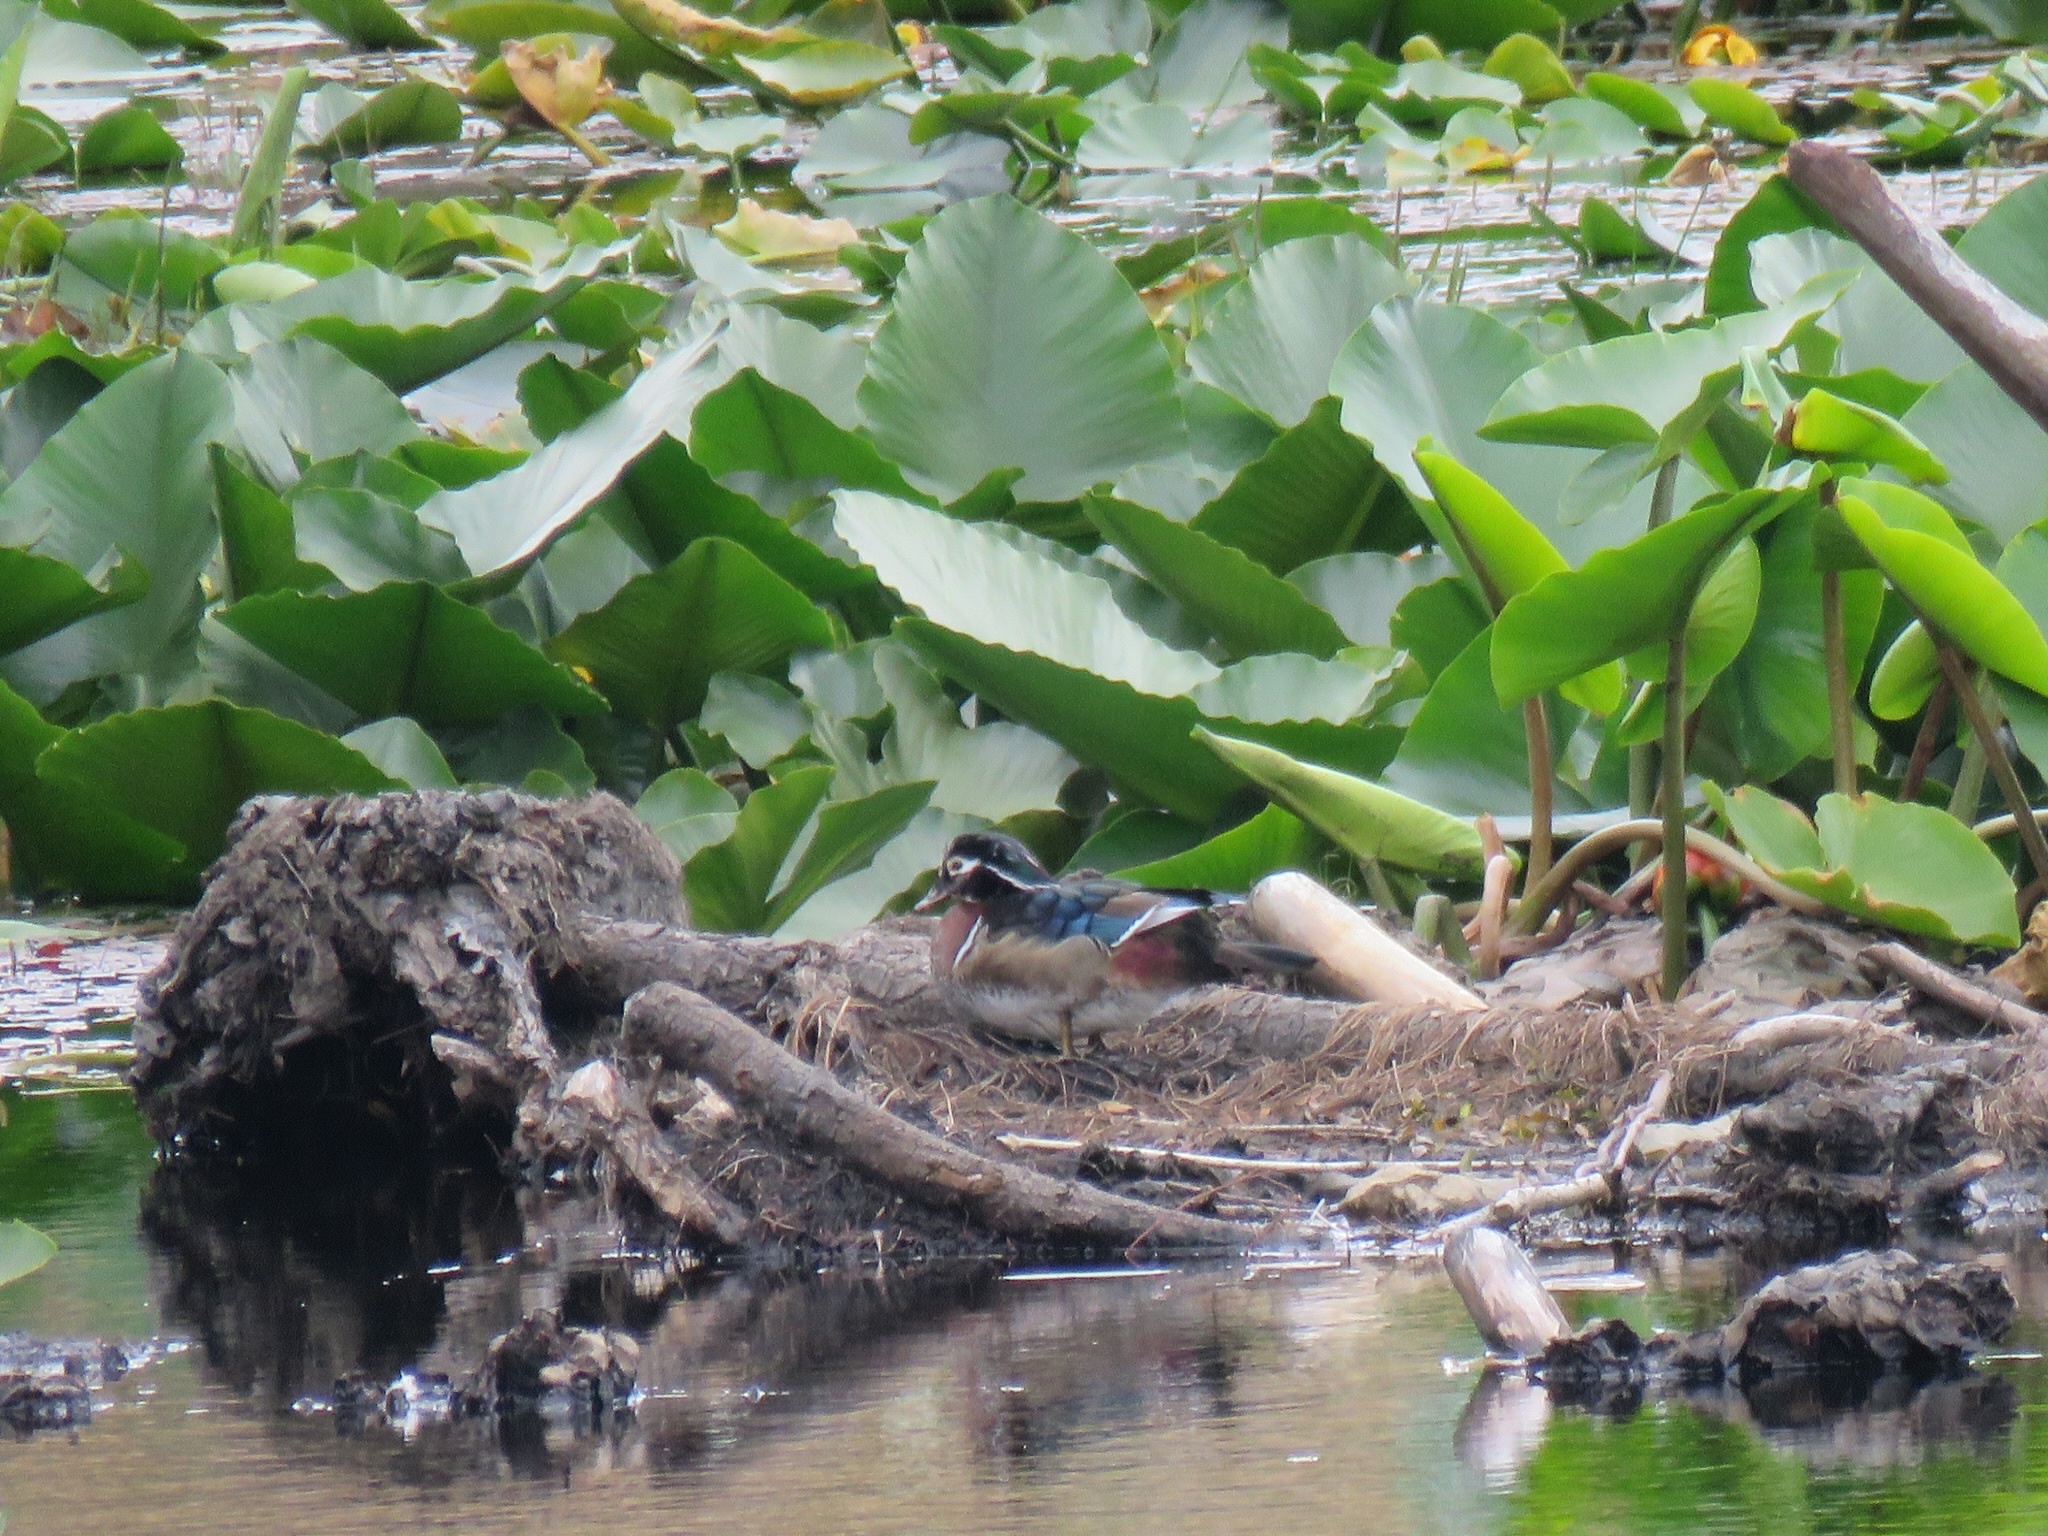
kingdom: Animalia
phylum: Chordata
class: Aves
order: Anseriformes
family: Anatidae
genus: Aix
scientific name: Aix sponsa
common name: Wood duck
